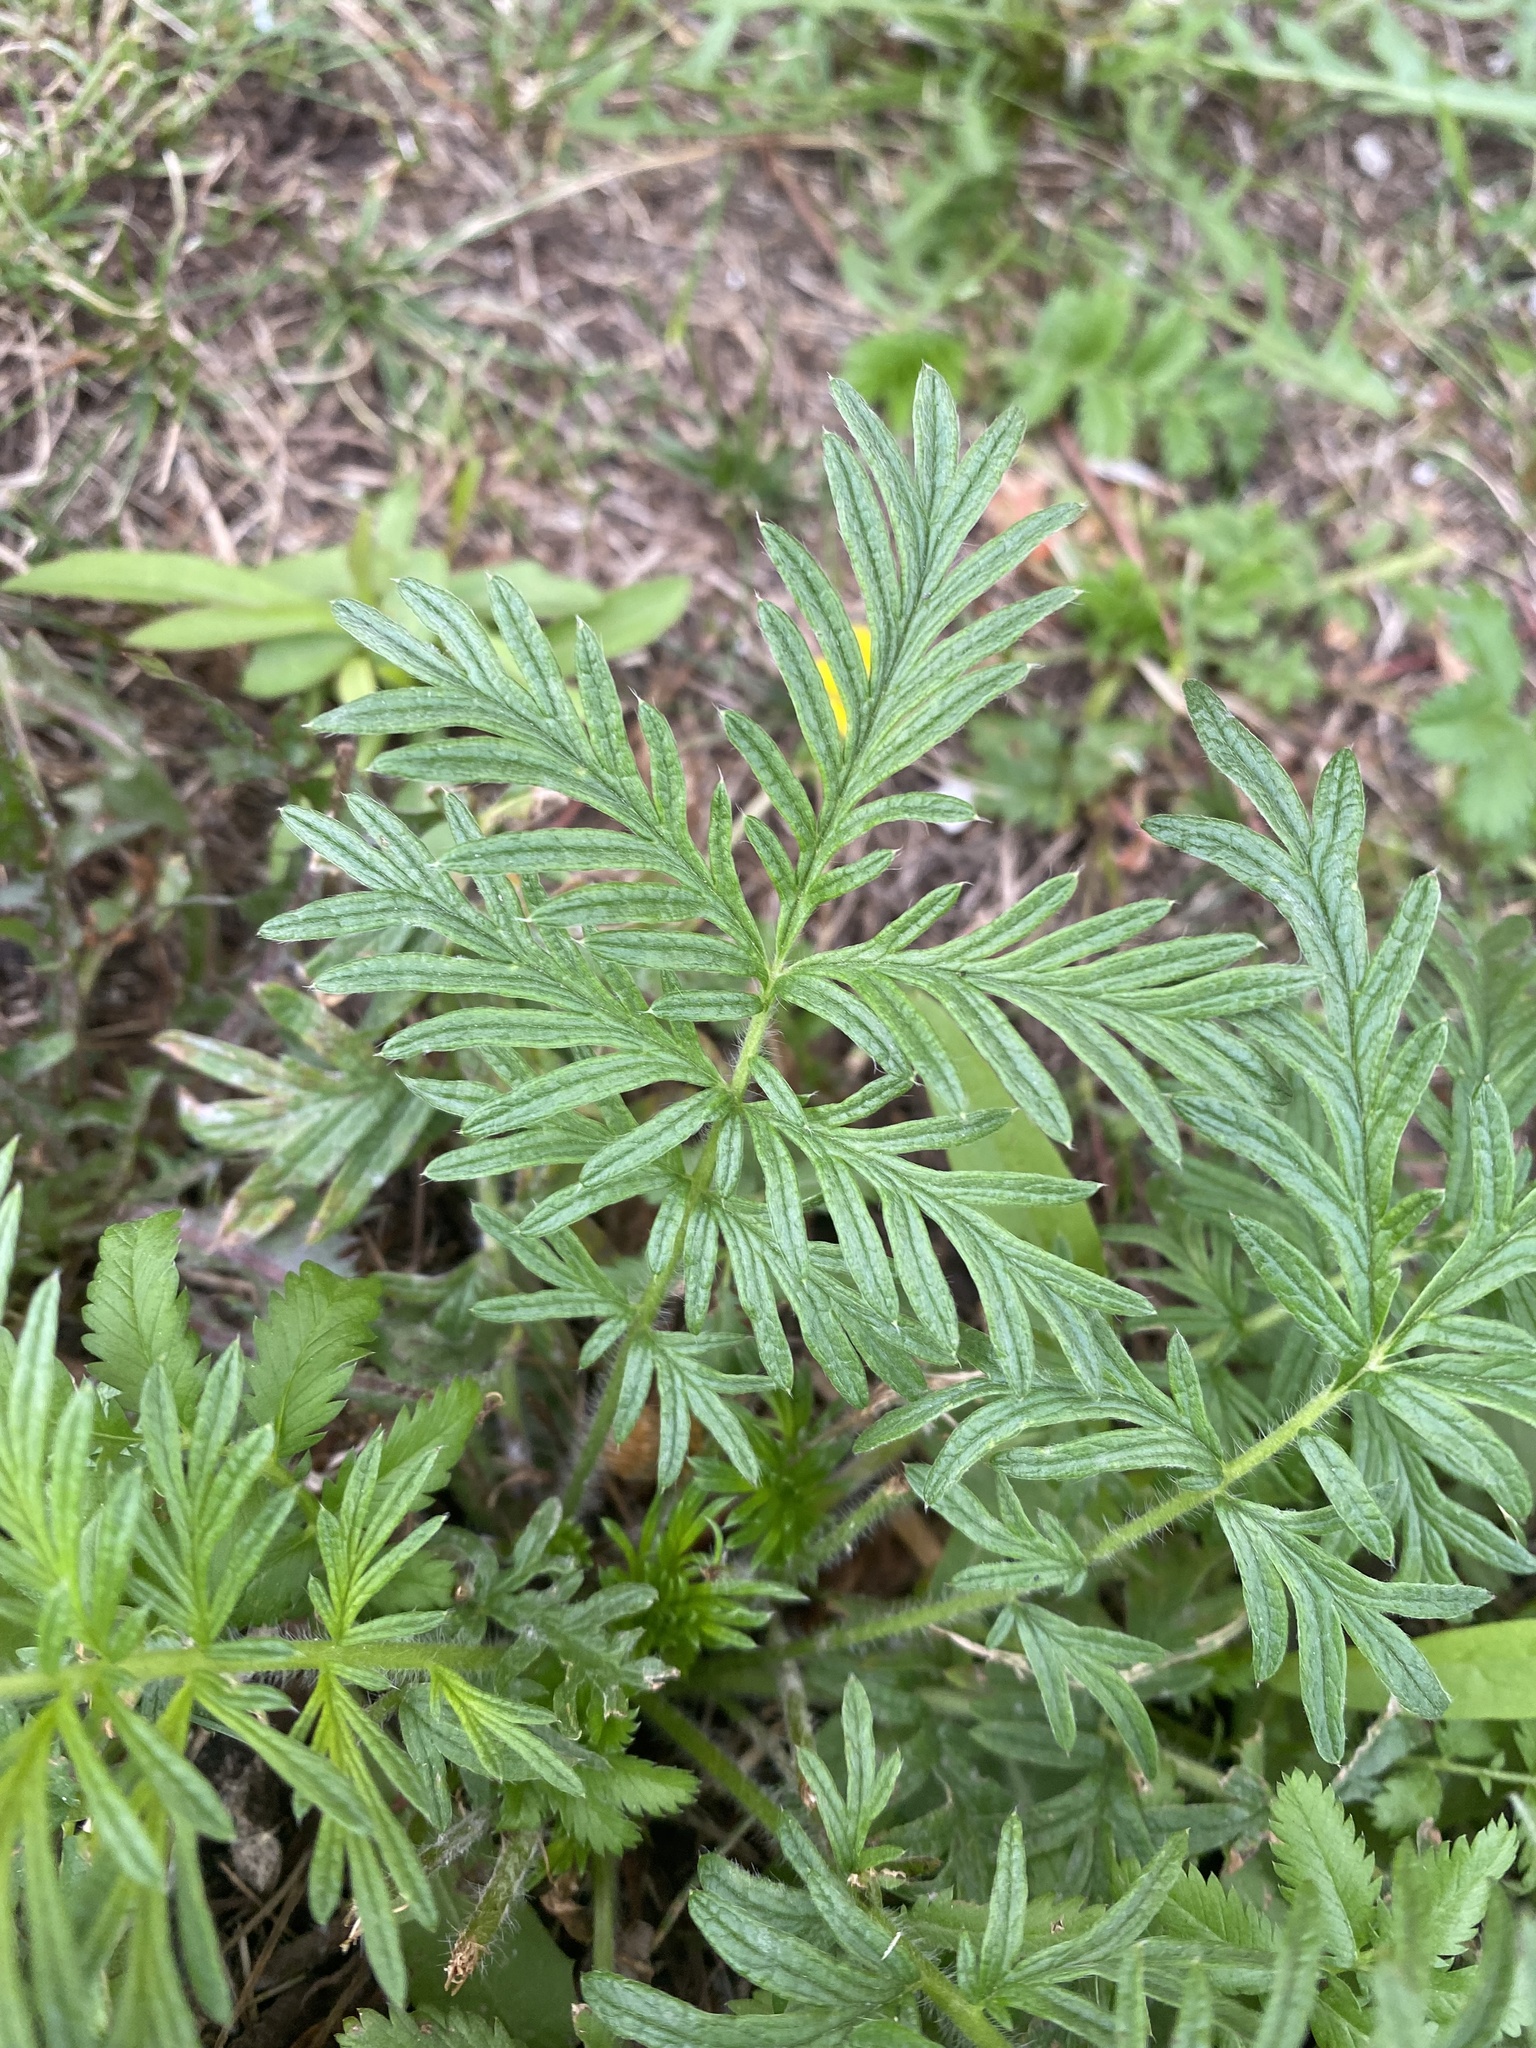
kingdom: Plantae
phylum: Tracheophyta
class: Magnoliopsida
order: Rosales
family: Rosaceae
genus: Potentilla
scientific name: Potentilla tergemina
